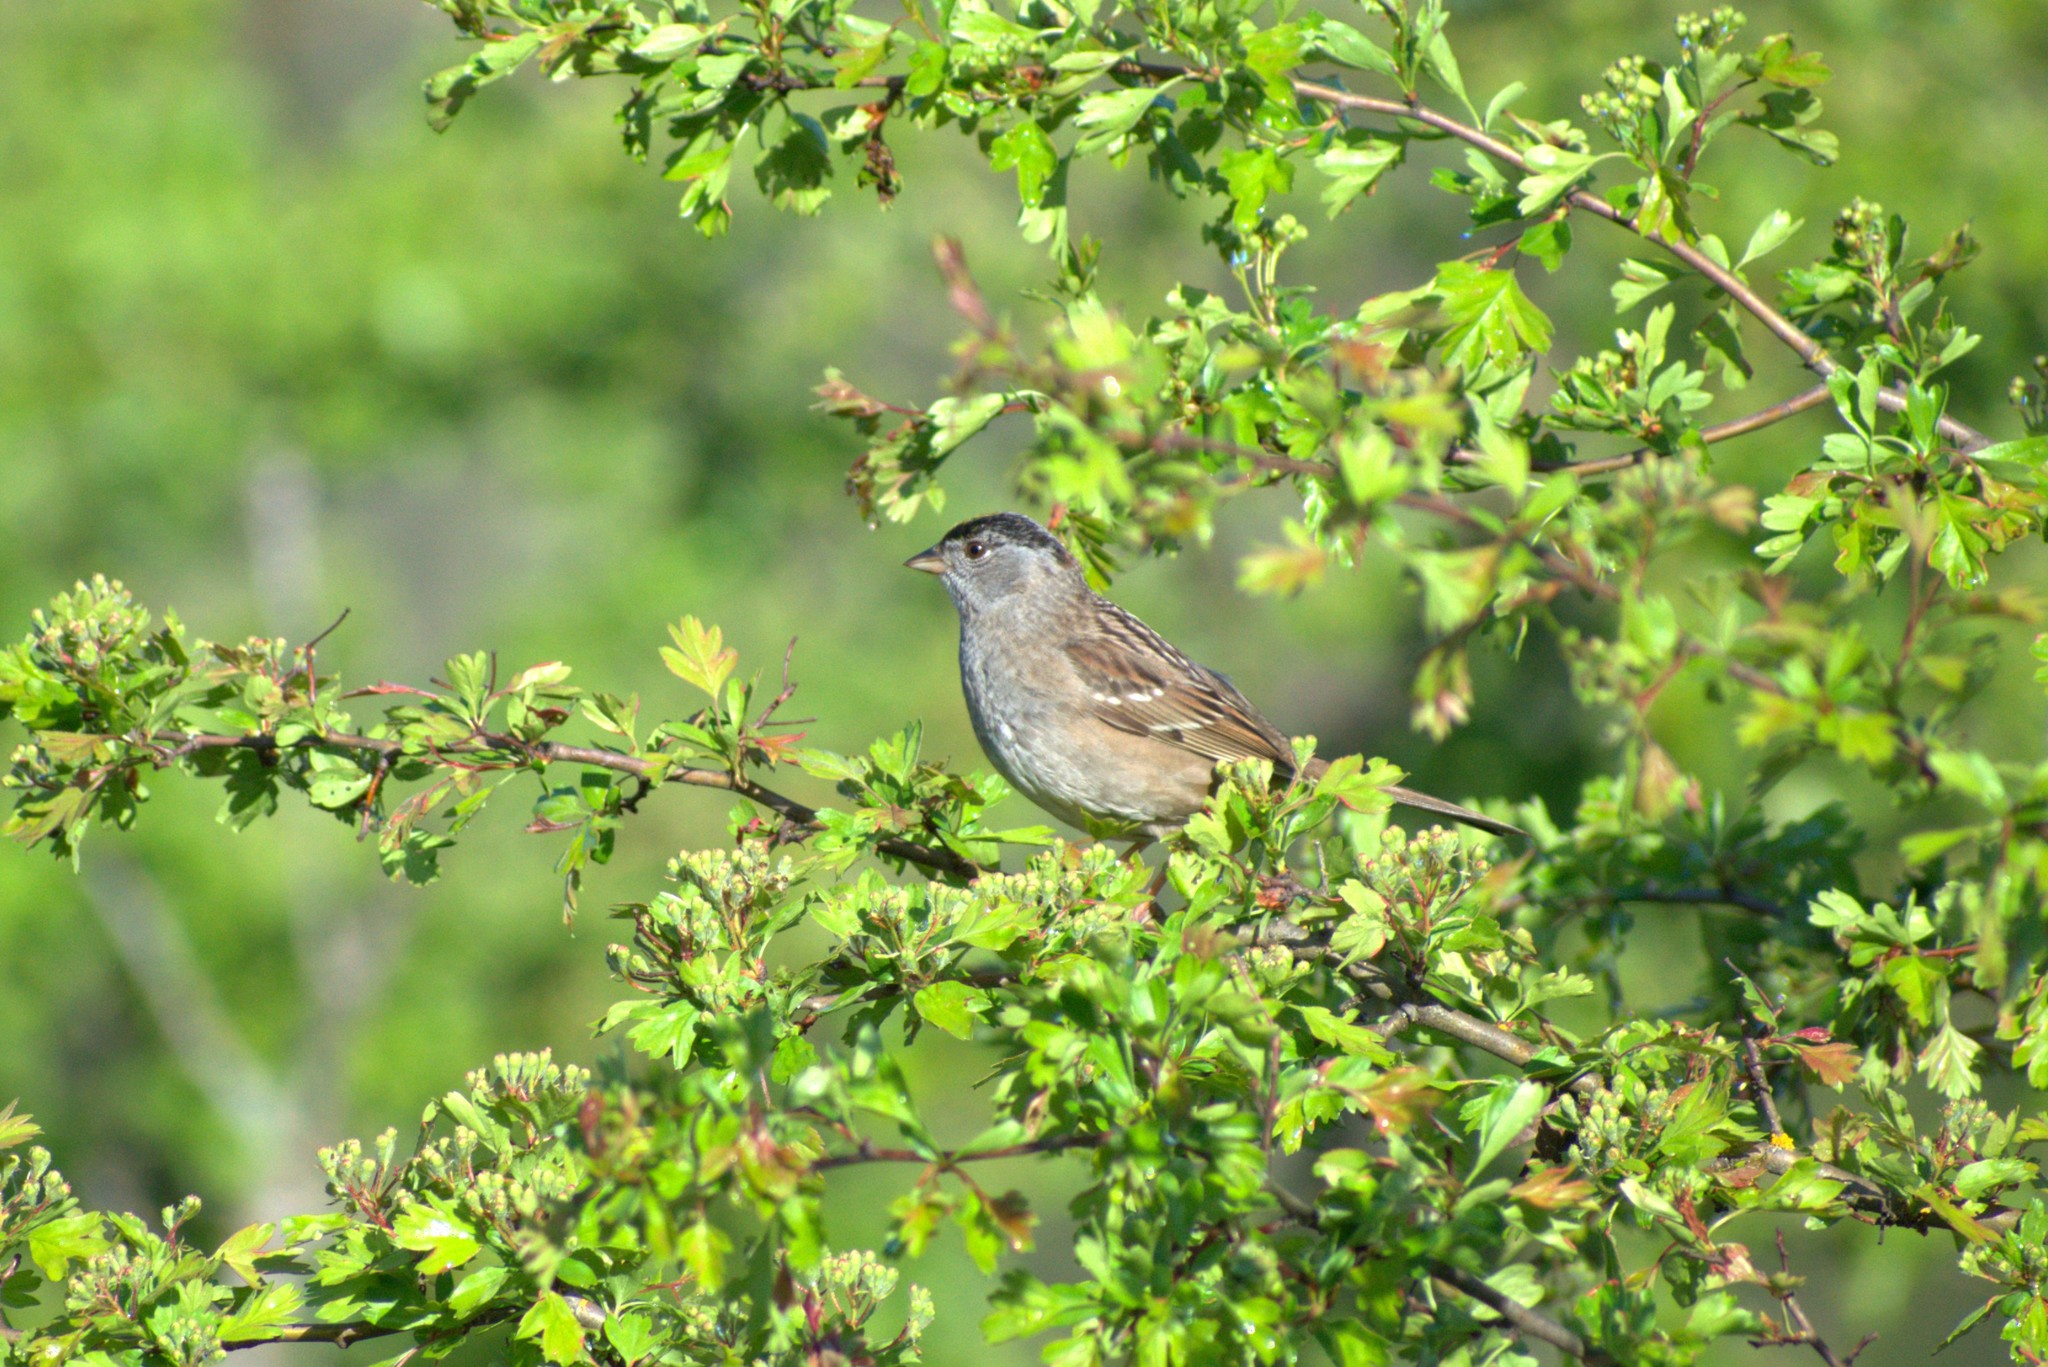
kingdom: Animalia
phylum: Chordata
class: Aves
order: Passeriformes
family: Passerellidae
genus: Zonotrichia
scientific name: Zonotrichia atricapilla
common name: Golden-crowned sparrow
